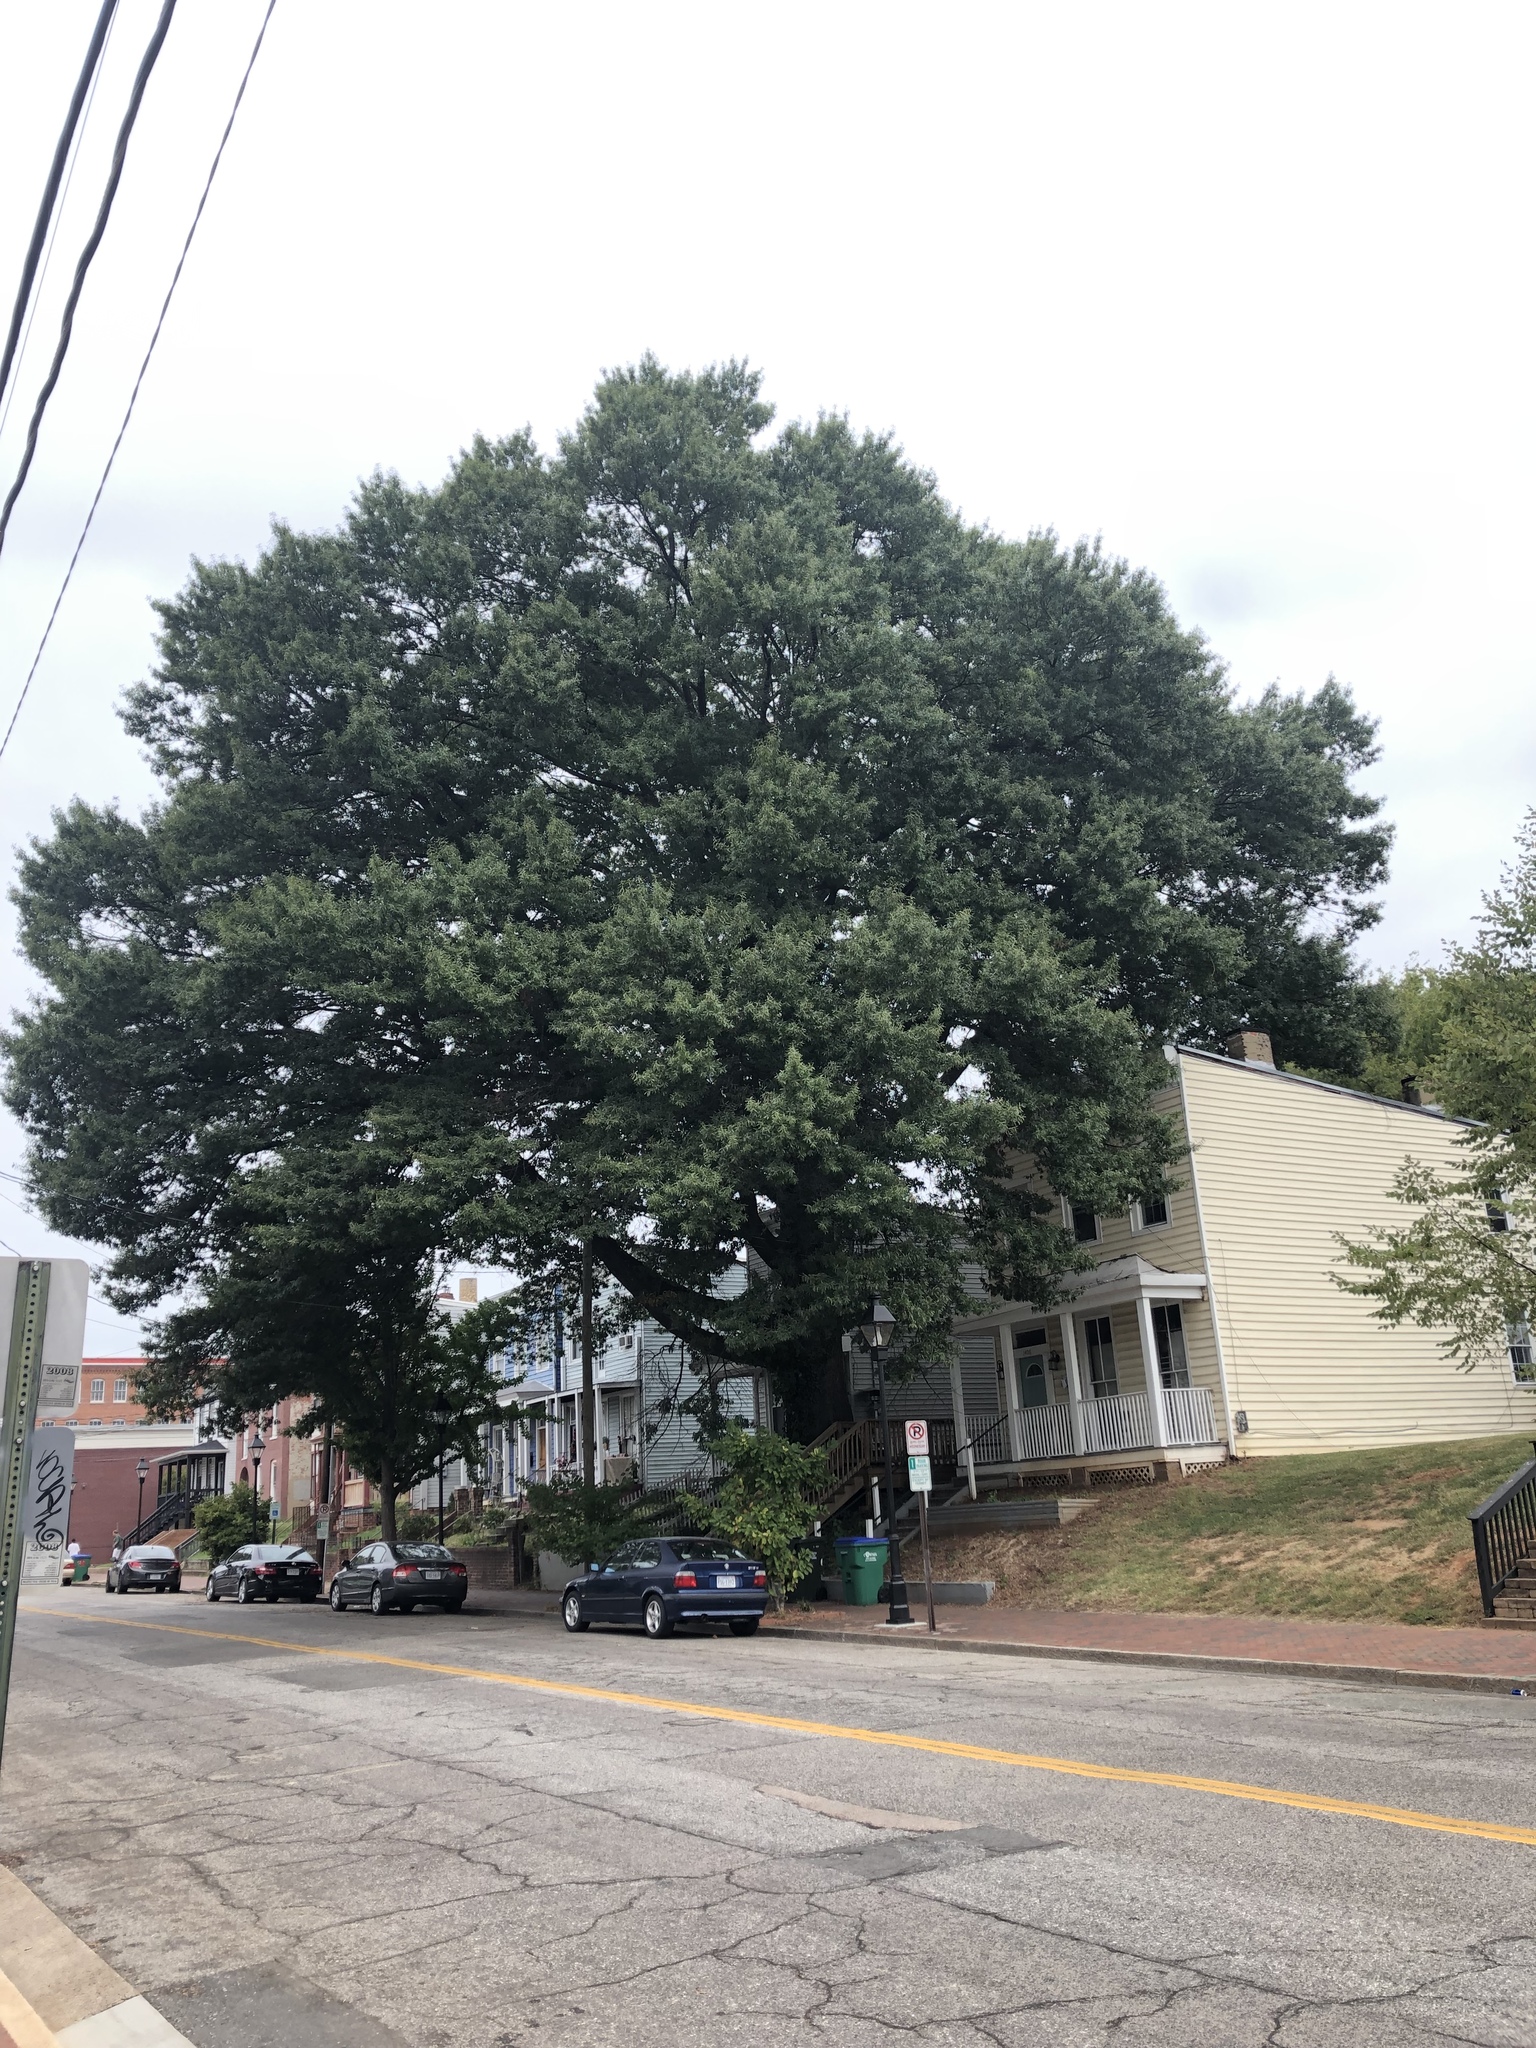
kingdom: Plantae
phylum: Tracheophyta
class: Magnoliopsida
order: Fagales
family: Fagaceae
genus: Quercus
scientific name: Quercus phellos
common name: Willow oak
